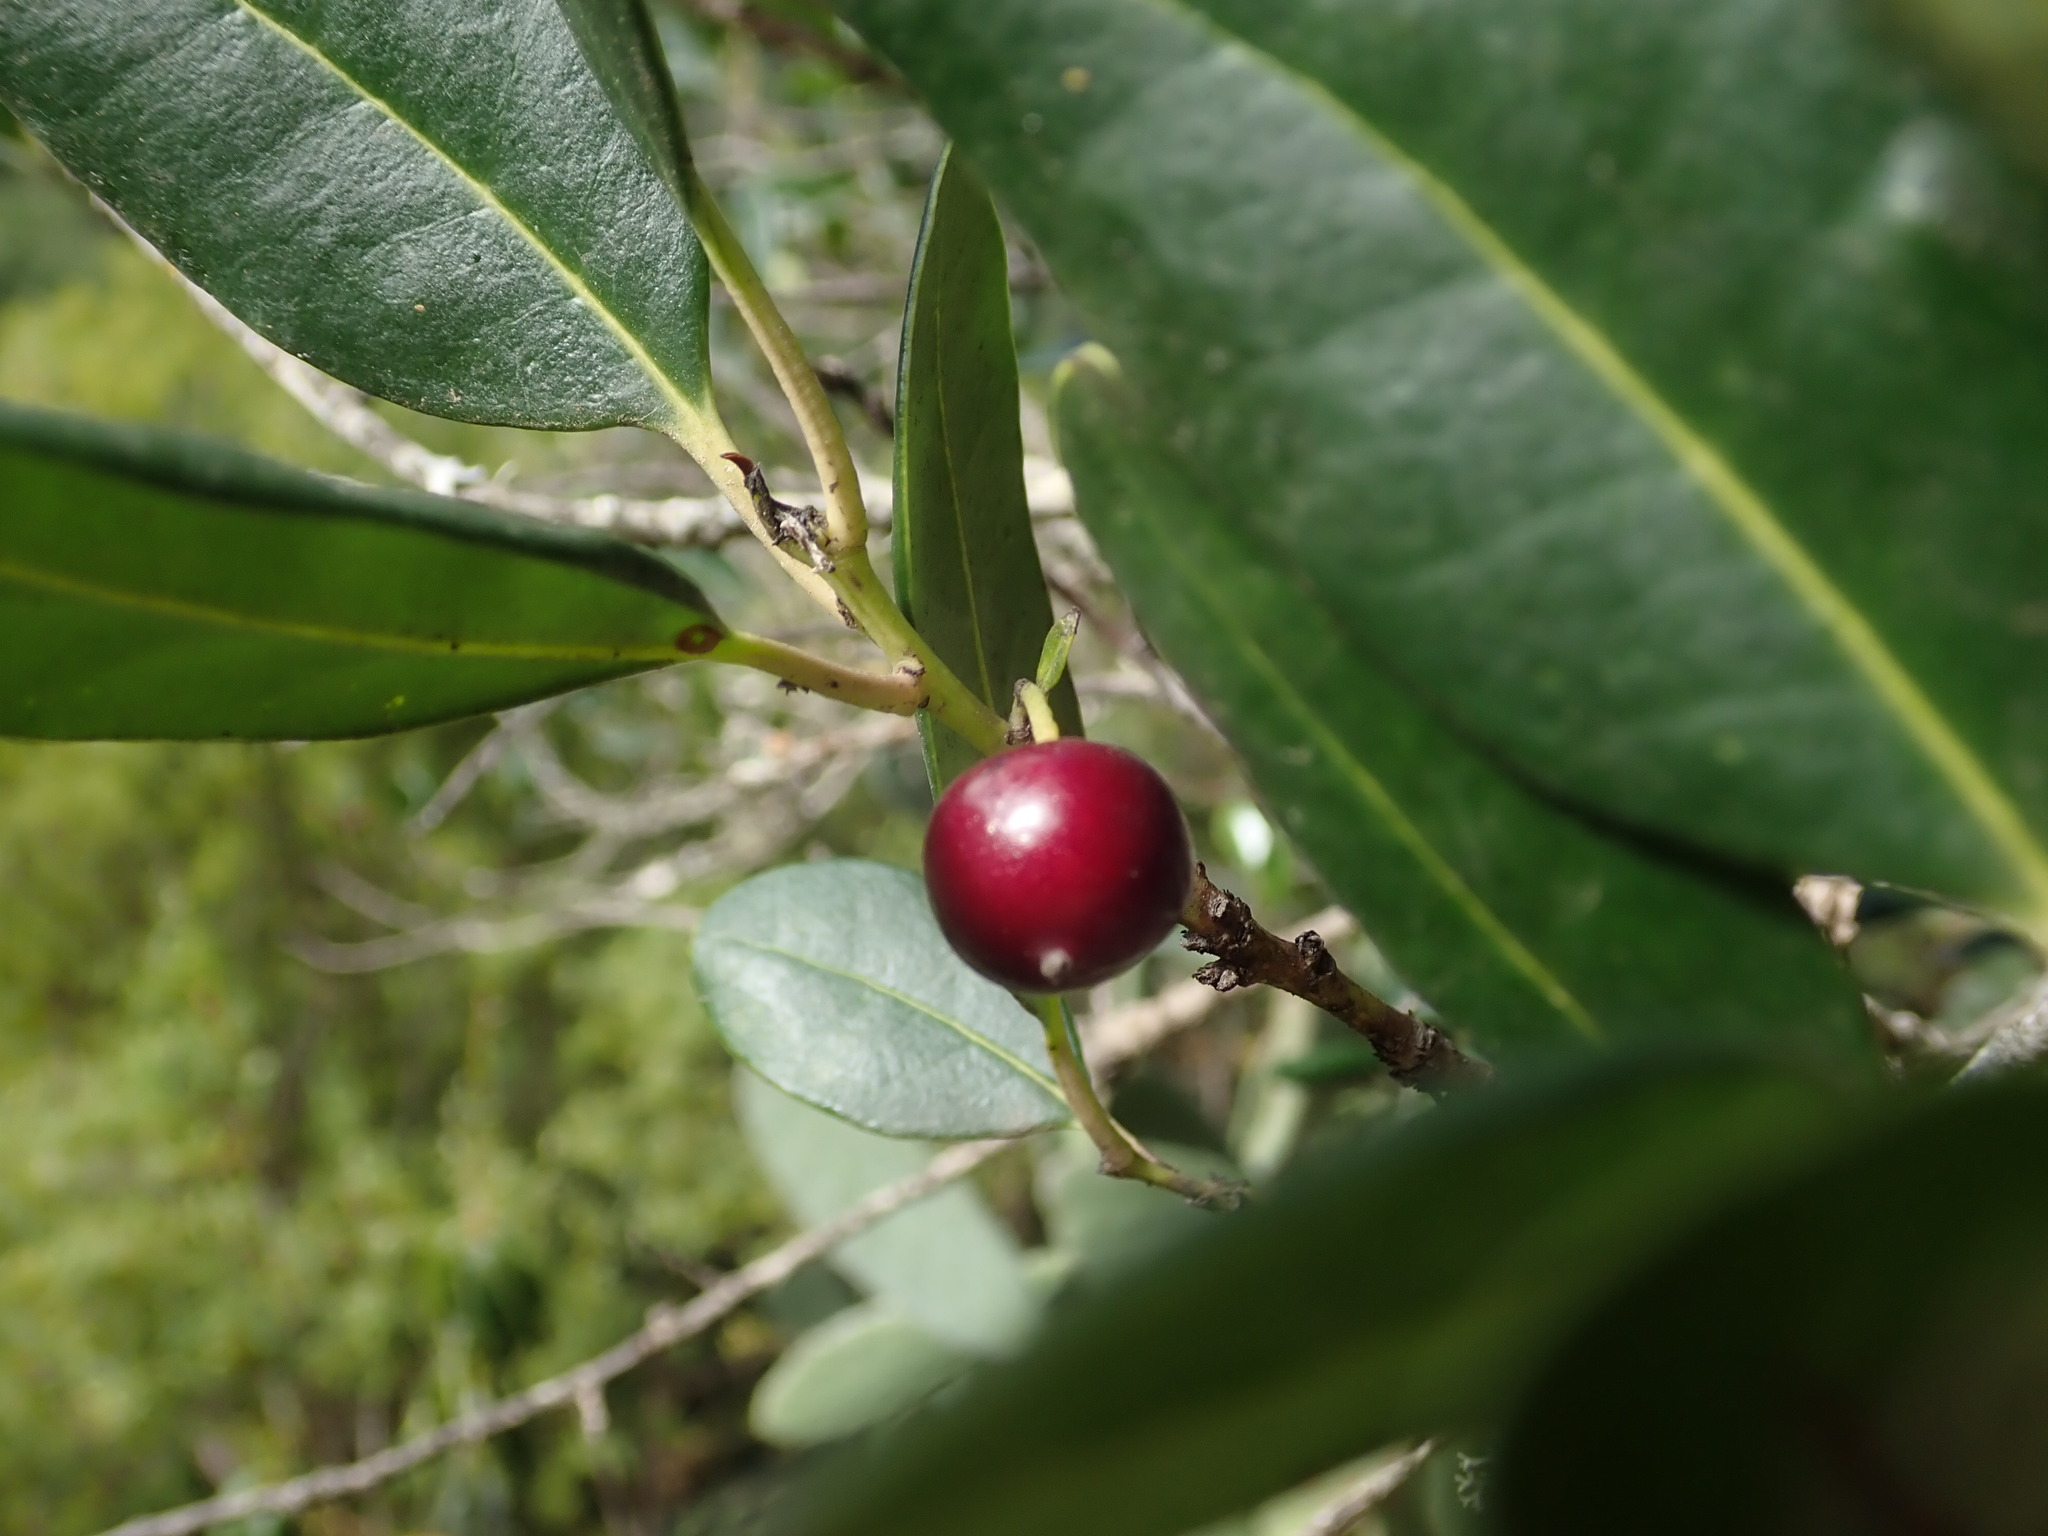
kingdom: Plantae
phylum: Tracheophyta
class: Magnoliopsida
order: Aquifoliales
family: Aquifoliaceae
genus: Ilex
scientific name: Ilex canariensis
